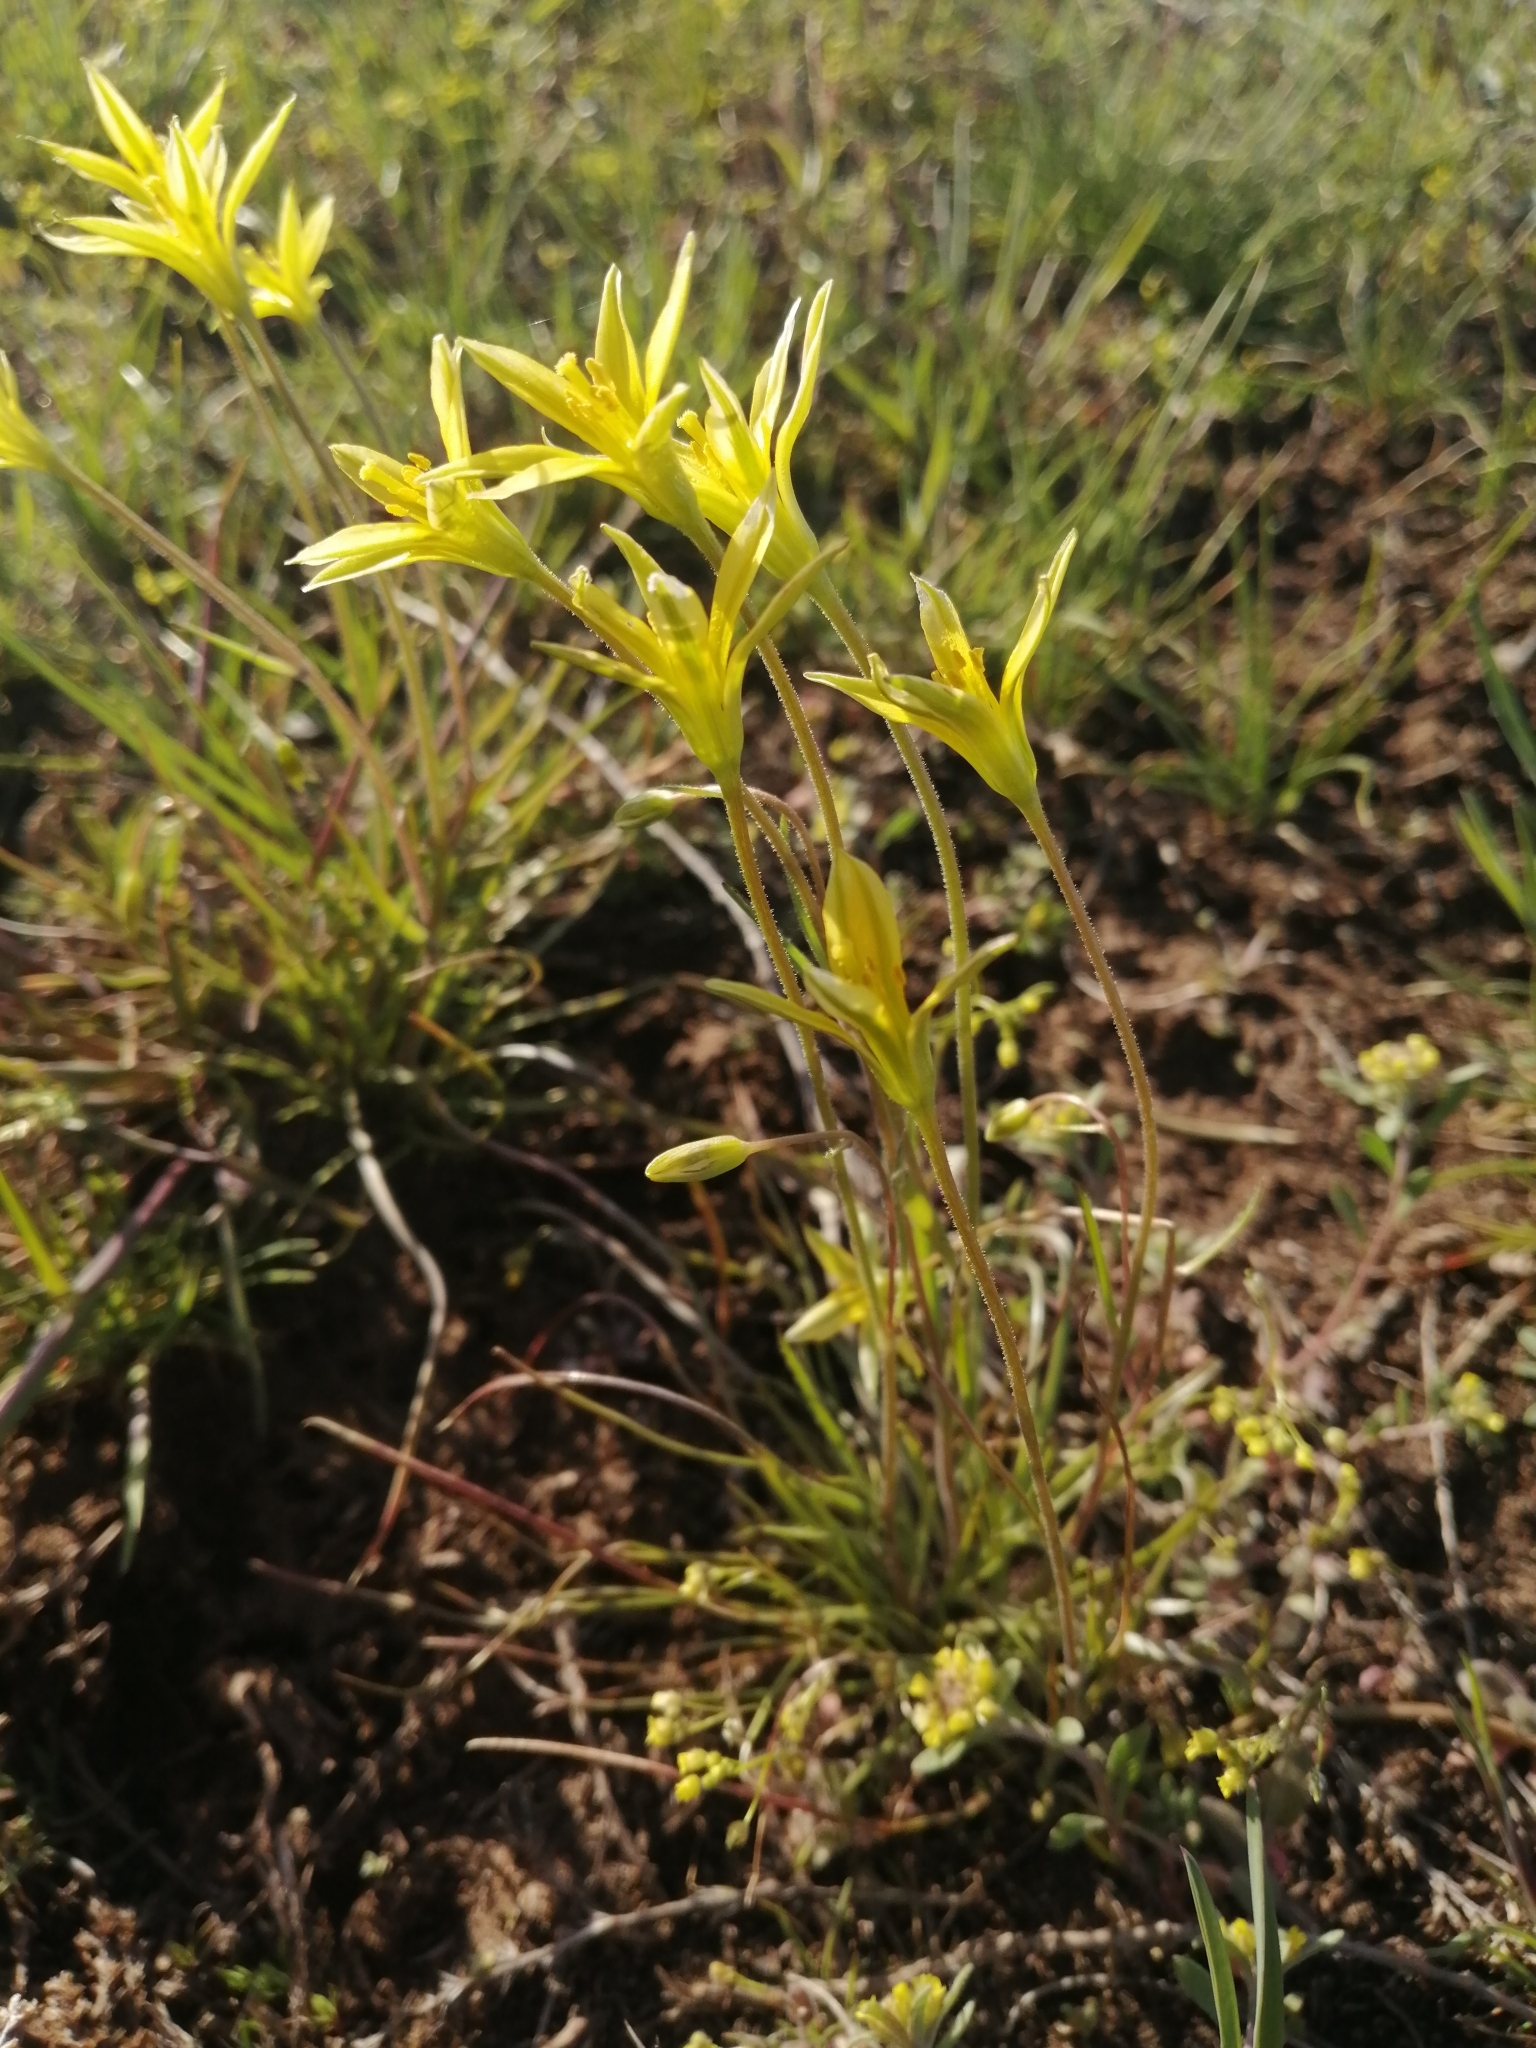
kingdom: Plantae
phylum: Tracheophyta
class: Liliopsida
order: Liliales
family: Liliaceae
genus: Gagea
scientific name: Gagea bulbifera
